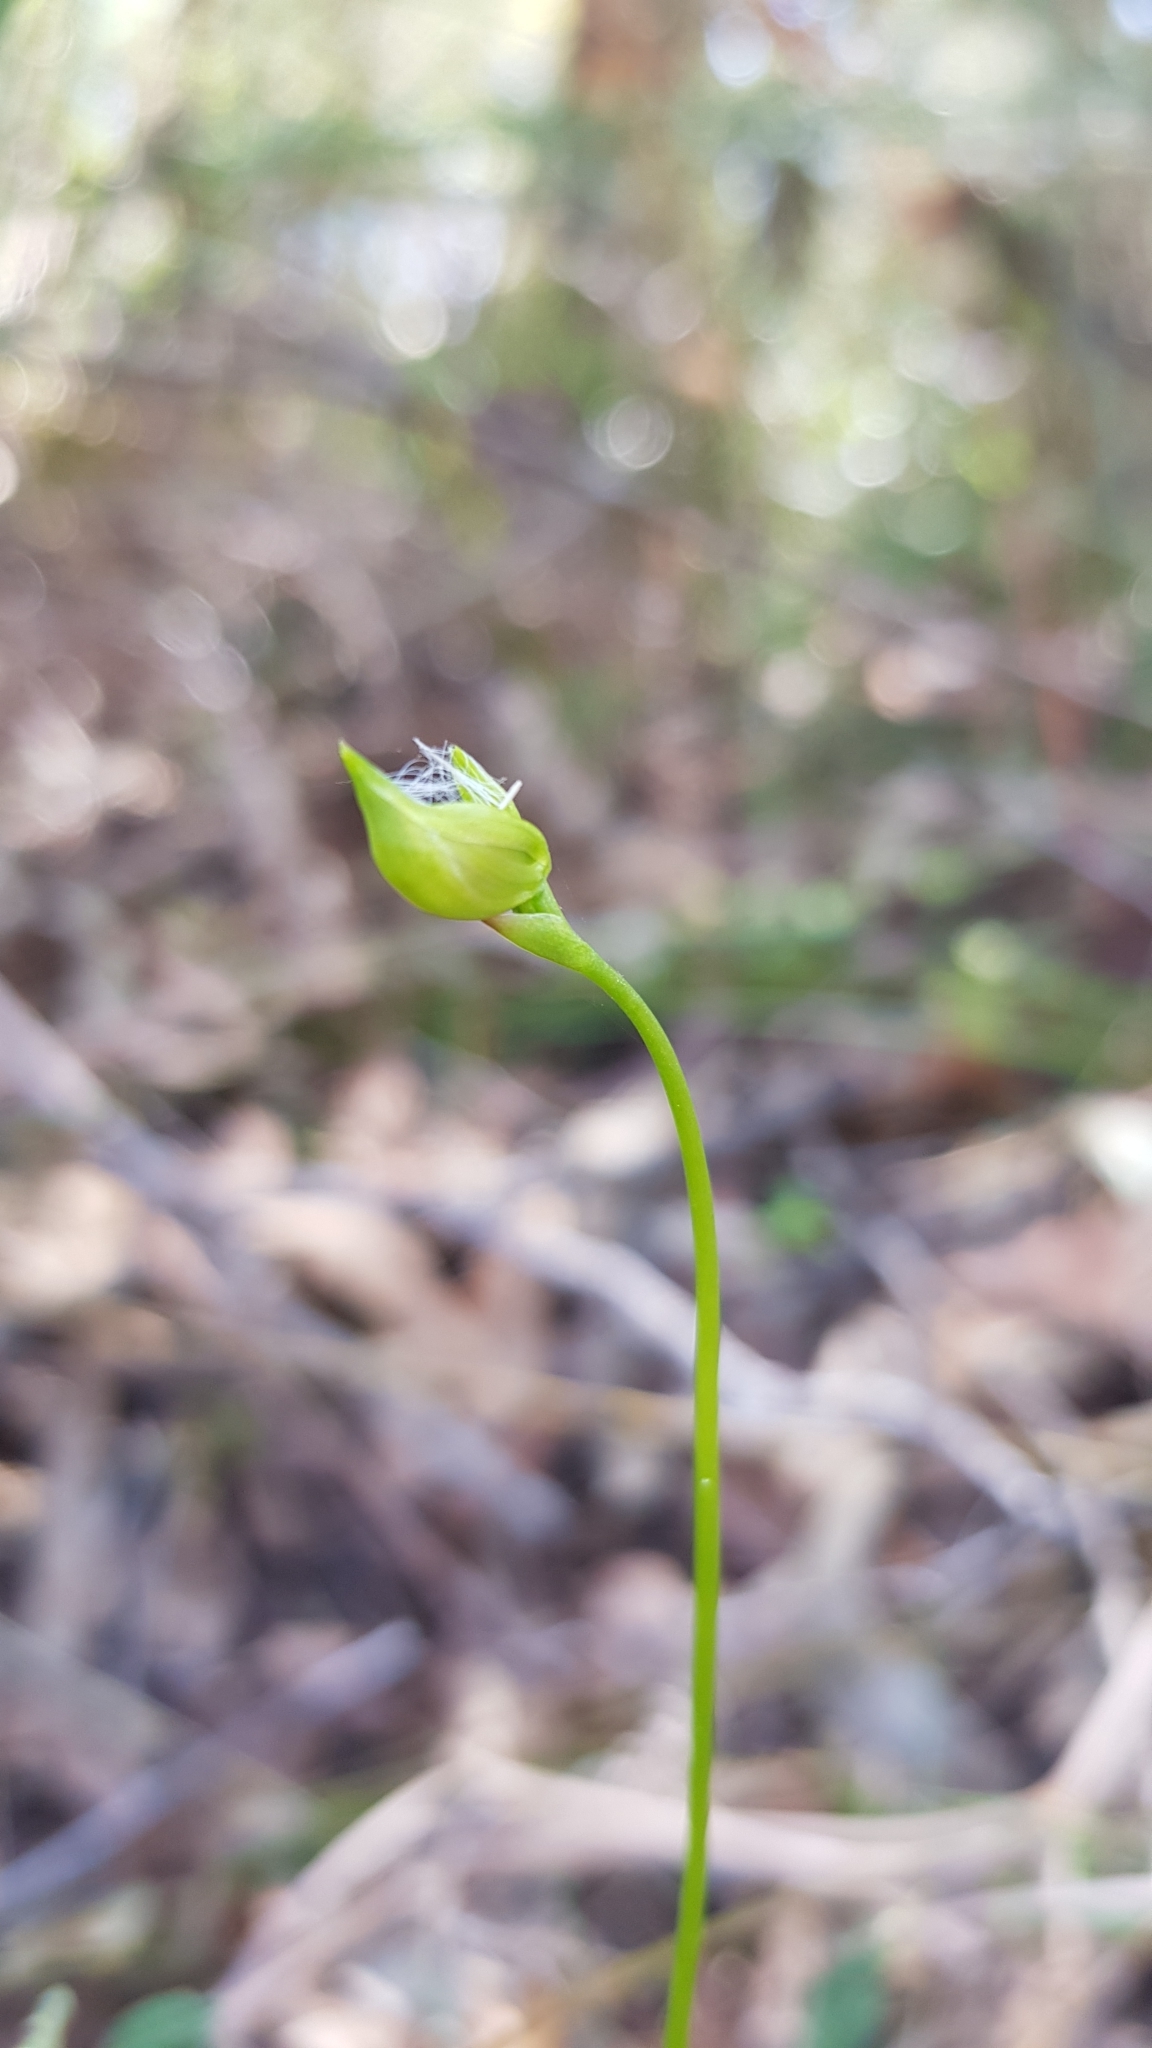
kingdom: Plantae
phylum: Tracheophyta
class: Liliopsida
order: Asparagales
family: Orchidaceae
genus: Caleana
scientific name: Caleana major
